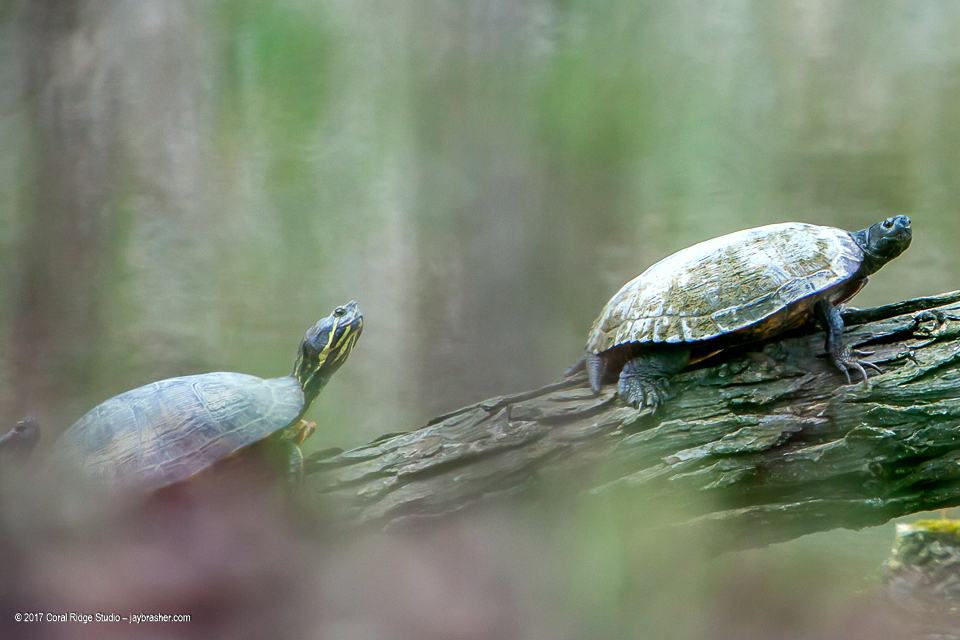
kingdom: Animalia
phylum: Chordata
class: Testudines
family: Emydidae
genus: Trachemys
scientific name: Trachemys scripta
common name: Slider
